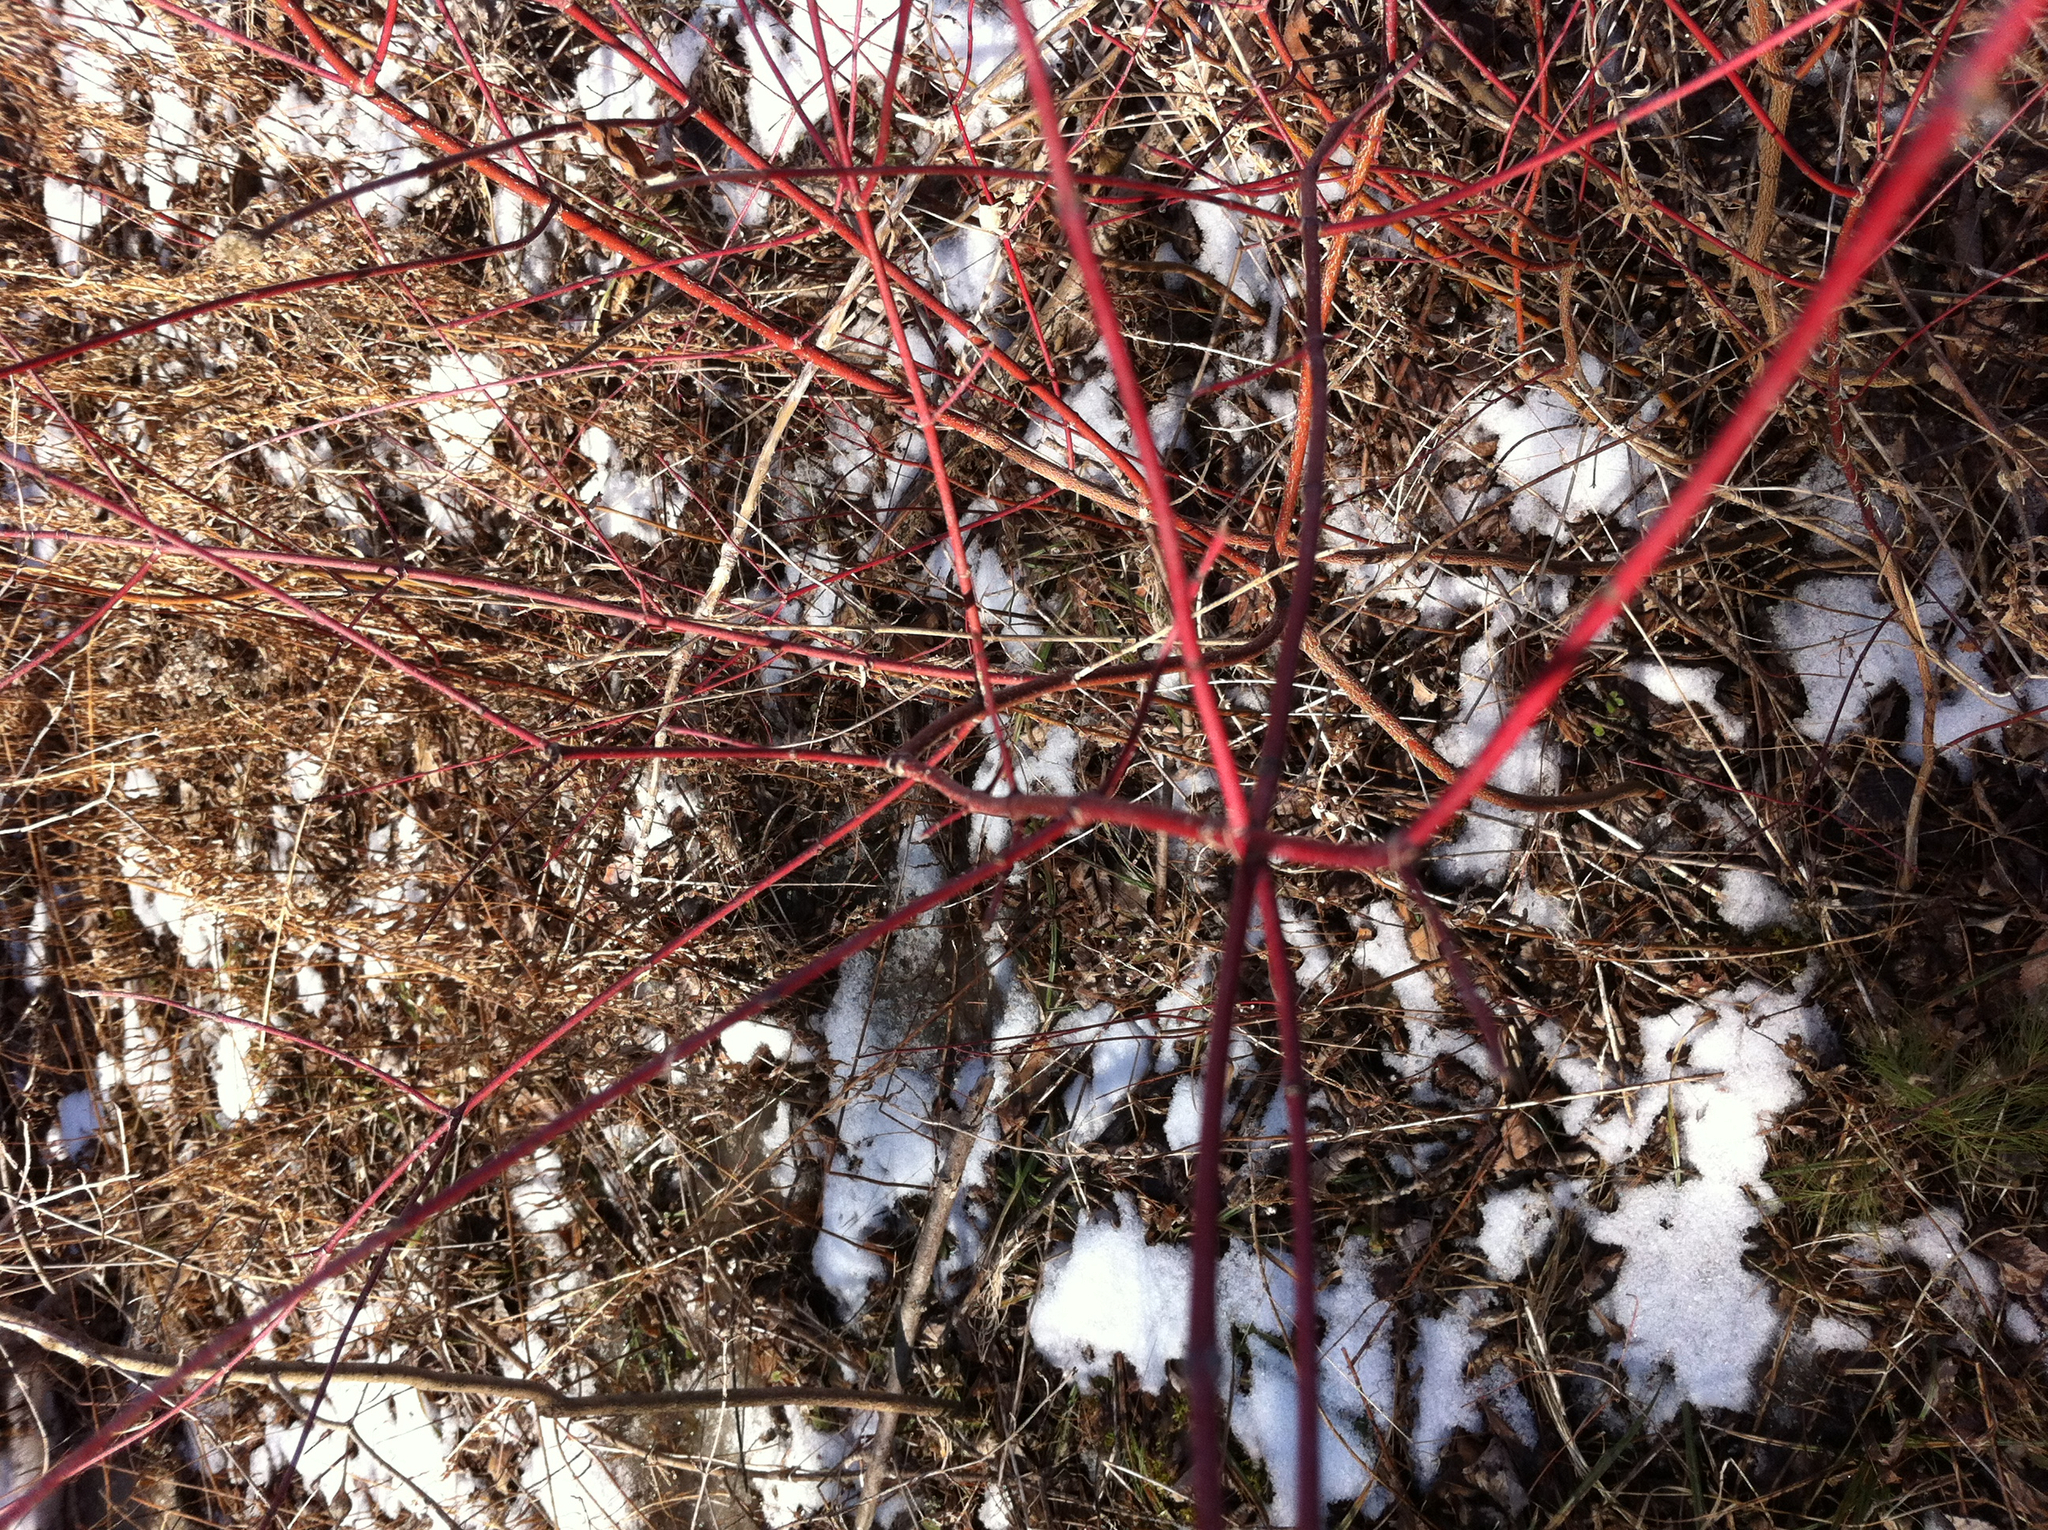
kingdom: Plantae
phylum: Tracheophyta
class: Magnoliopsida
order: Cornales
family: Cornaceae
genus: Cornus
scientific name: Cornus sericea
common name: Red-osier dogwood
